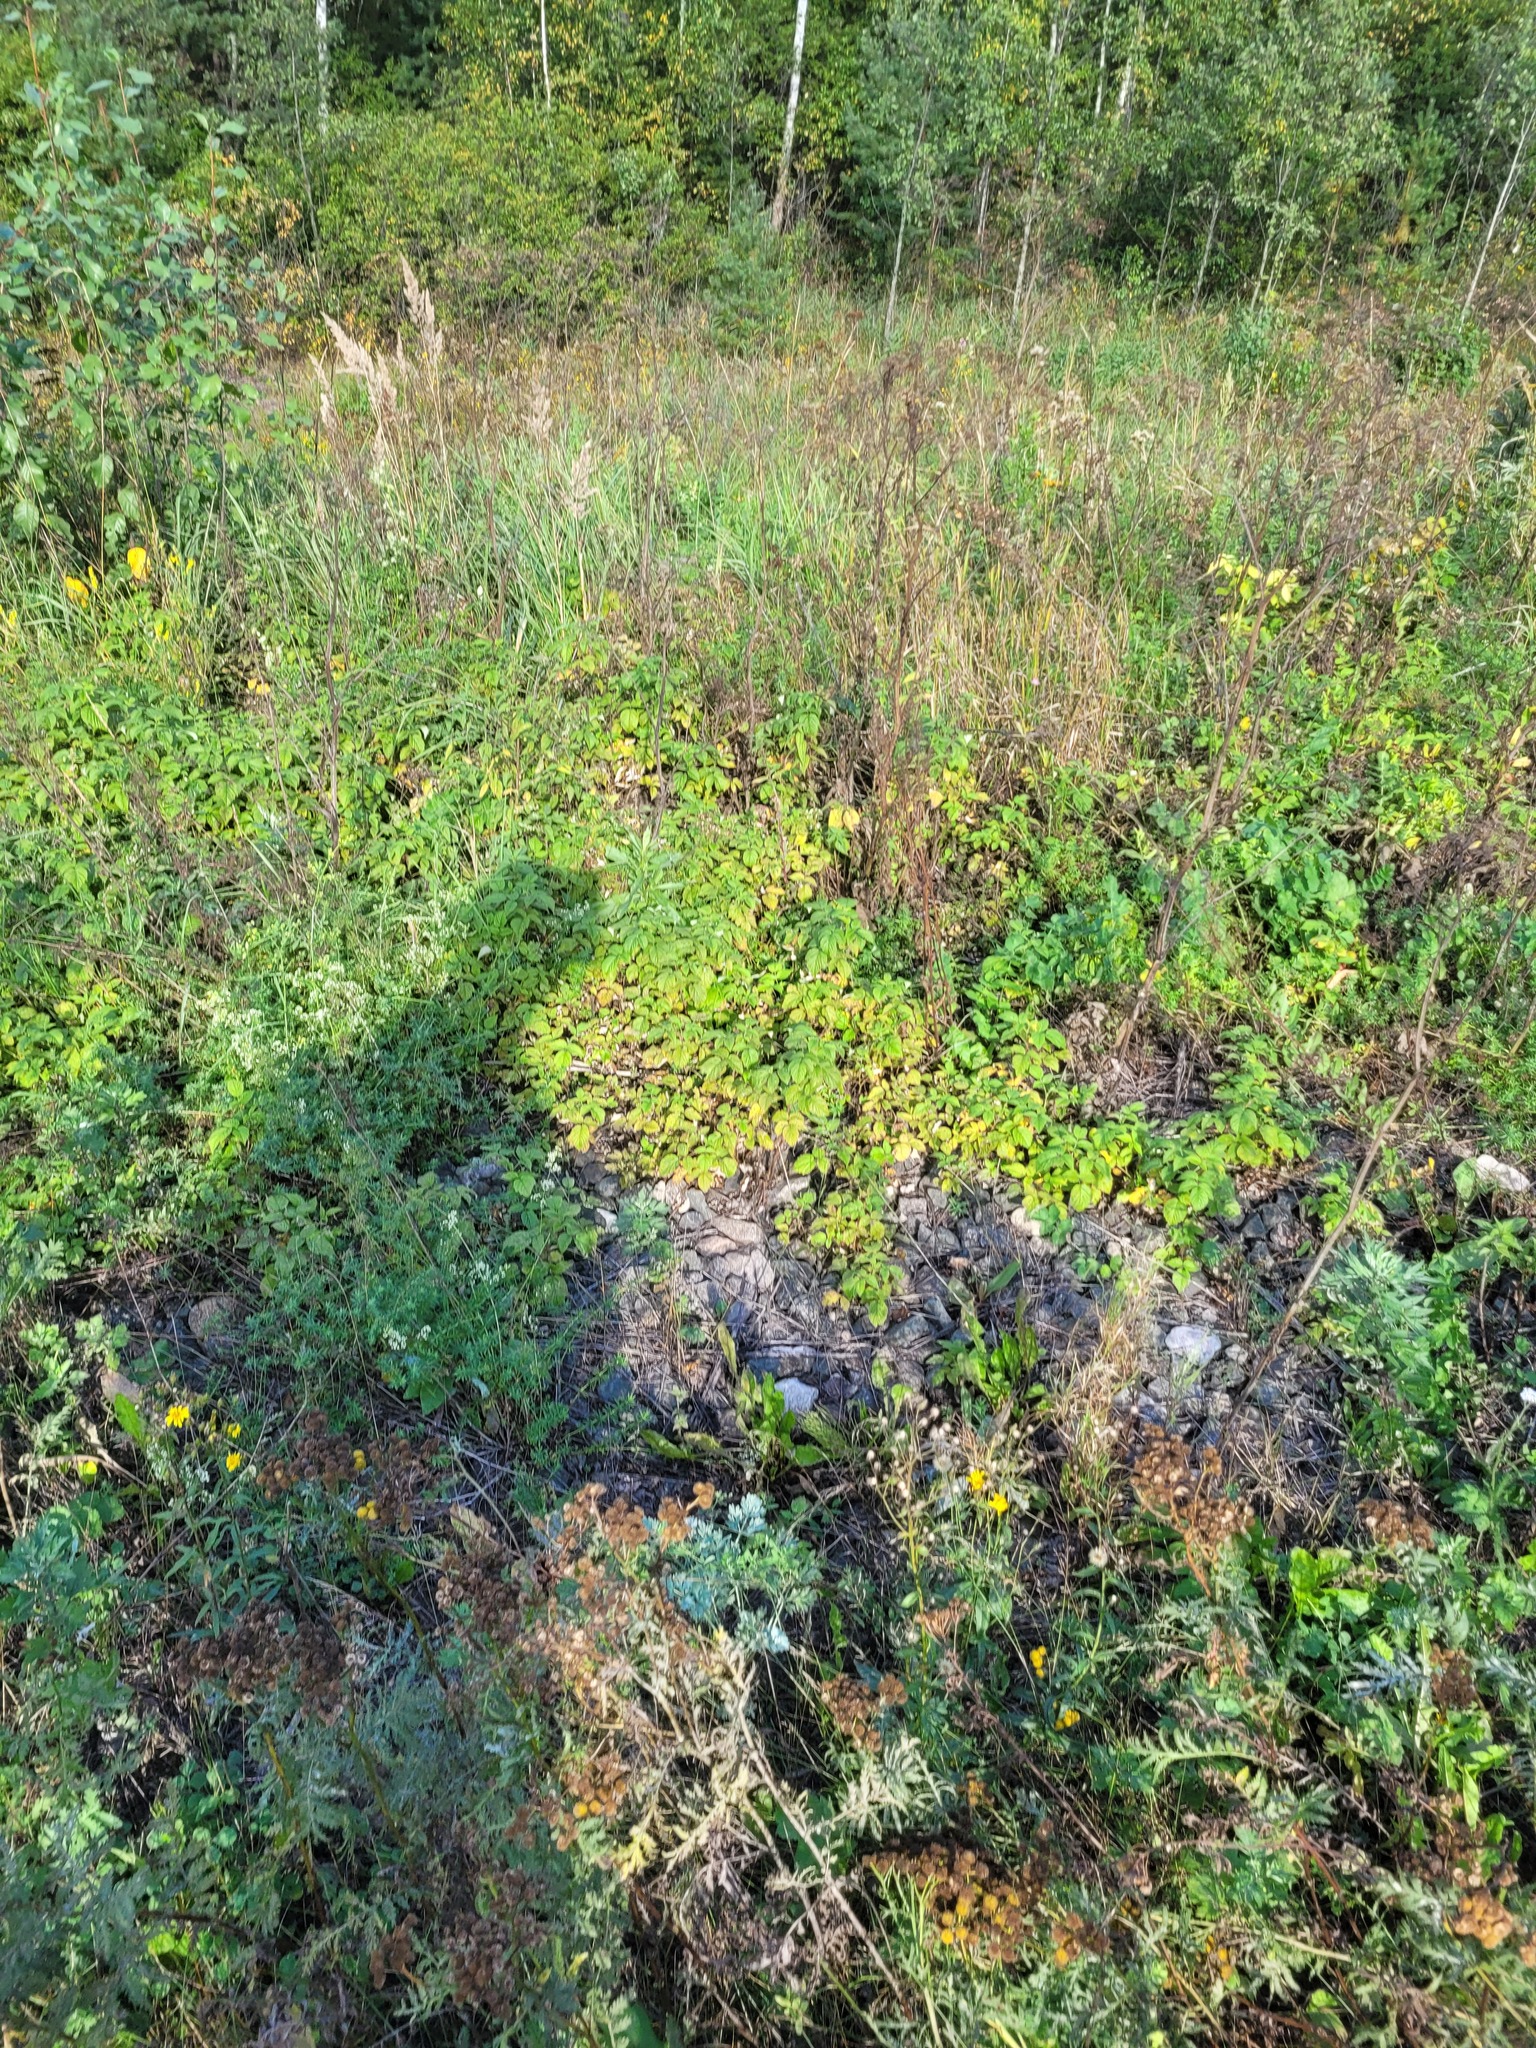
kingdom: Plantae
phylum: Tracheophyta
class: Magnoliopsida
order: Rosales
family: Rosaceae
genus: Rubus
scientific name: Rubus idaeus
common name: Raspberry
